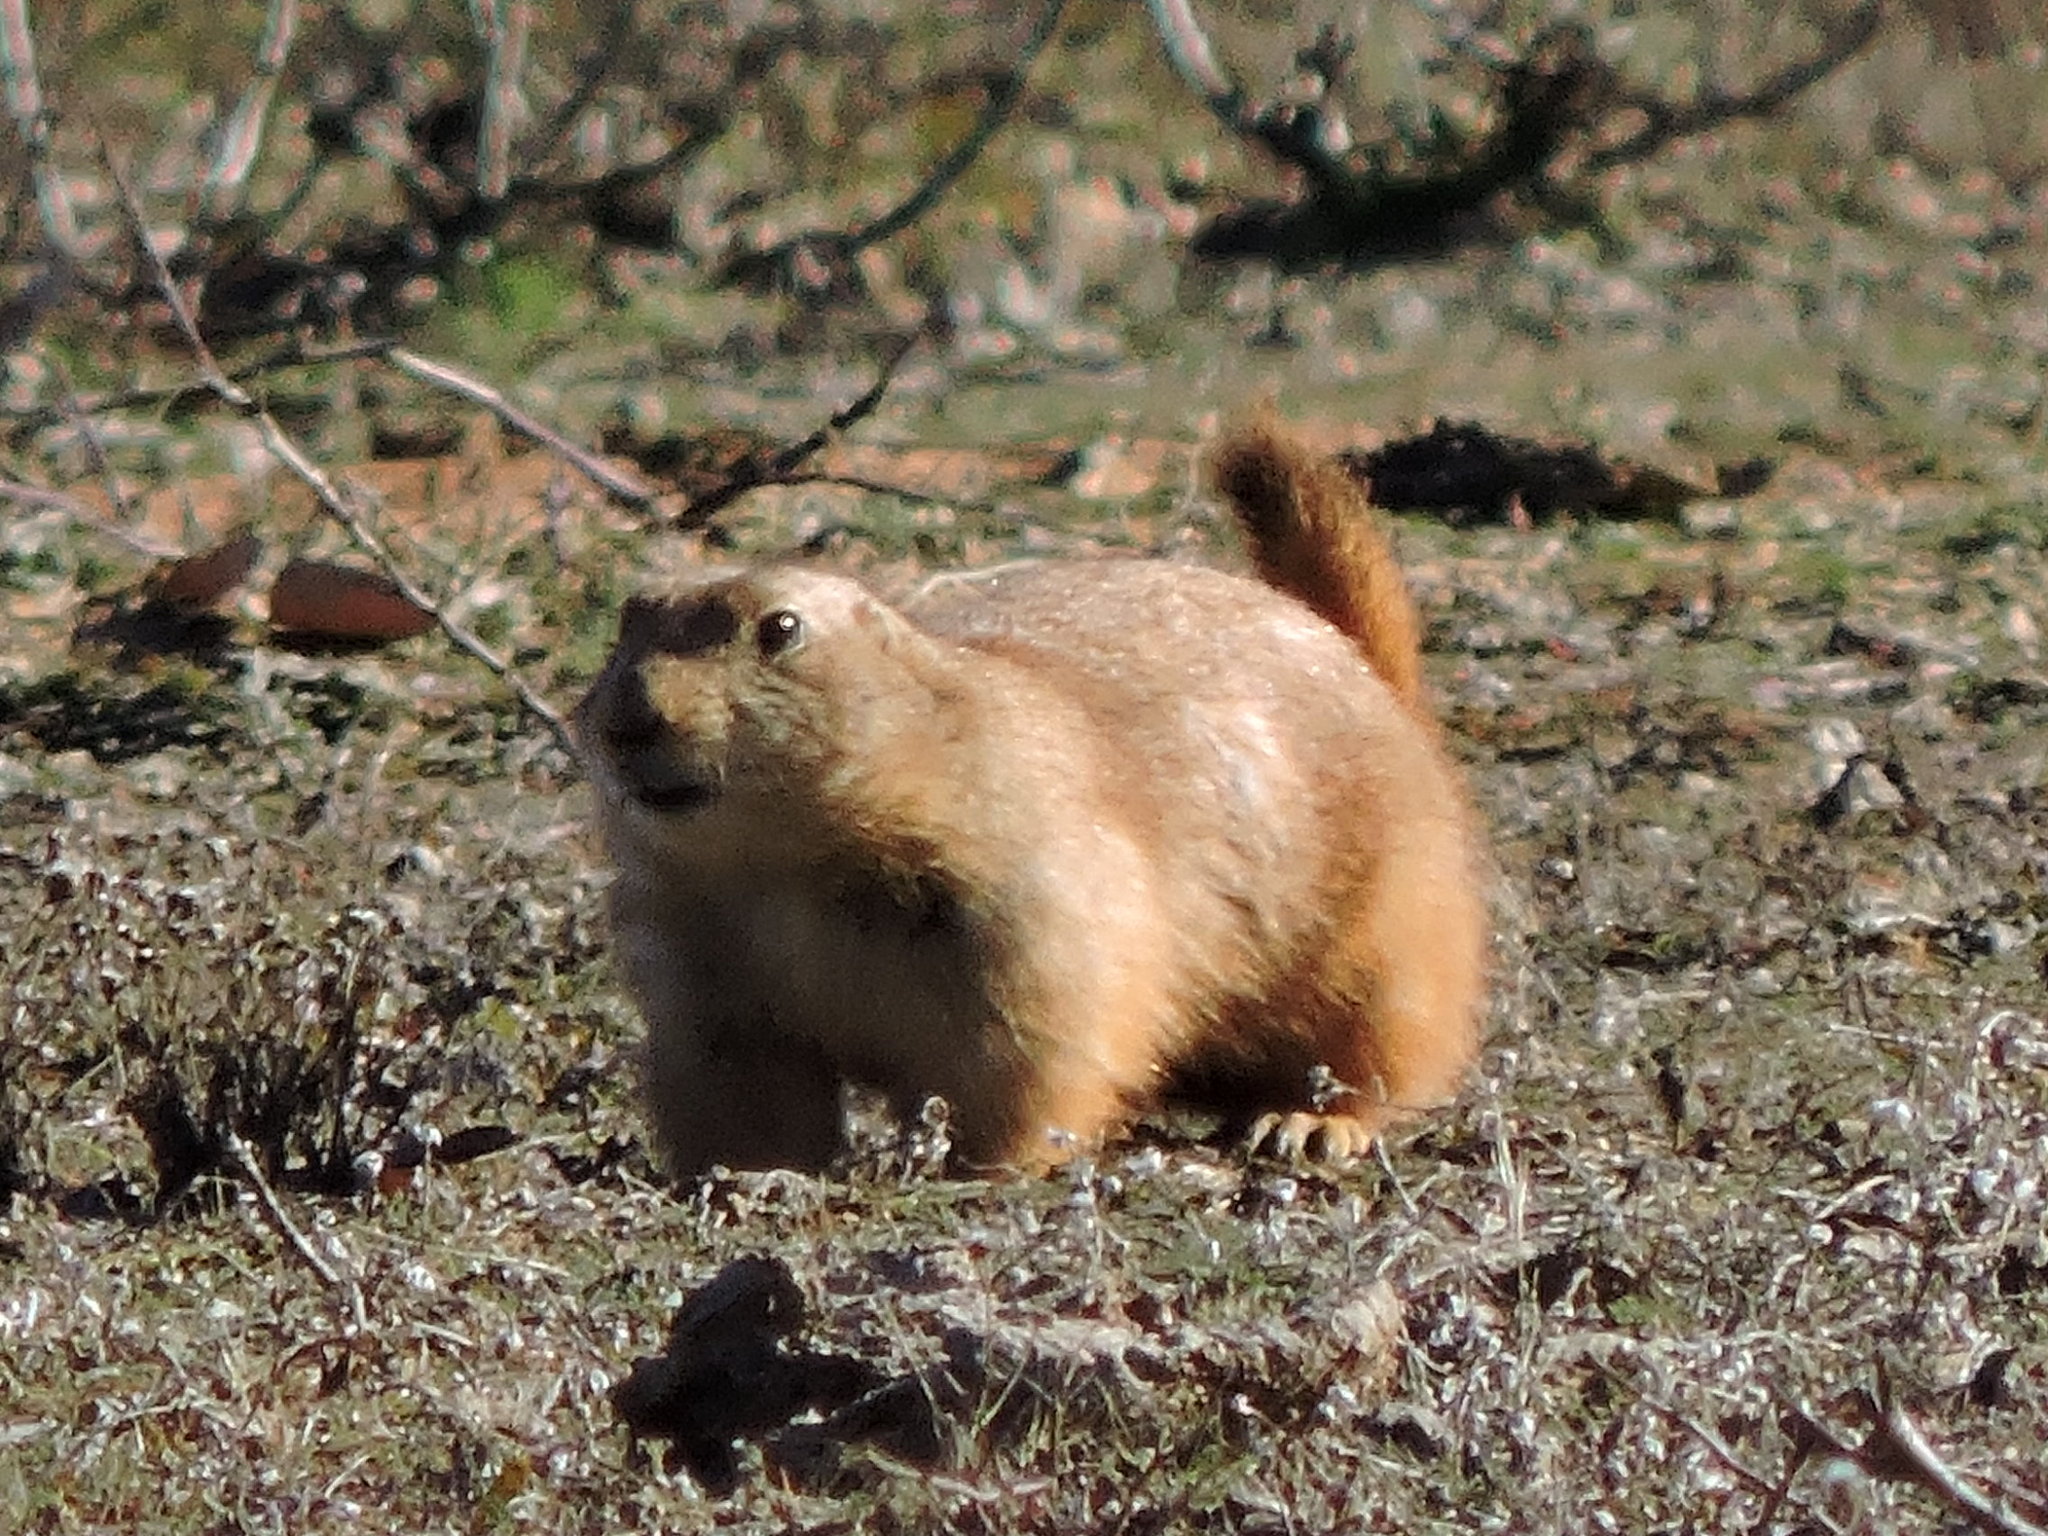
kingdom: Animalia
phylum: Chordata
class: Mammalia
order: Rodentia
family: Sciuridae
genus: Cynomys
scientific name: Cynomys ludovicianus
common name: Black-tailed prairie dog
